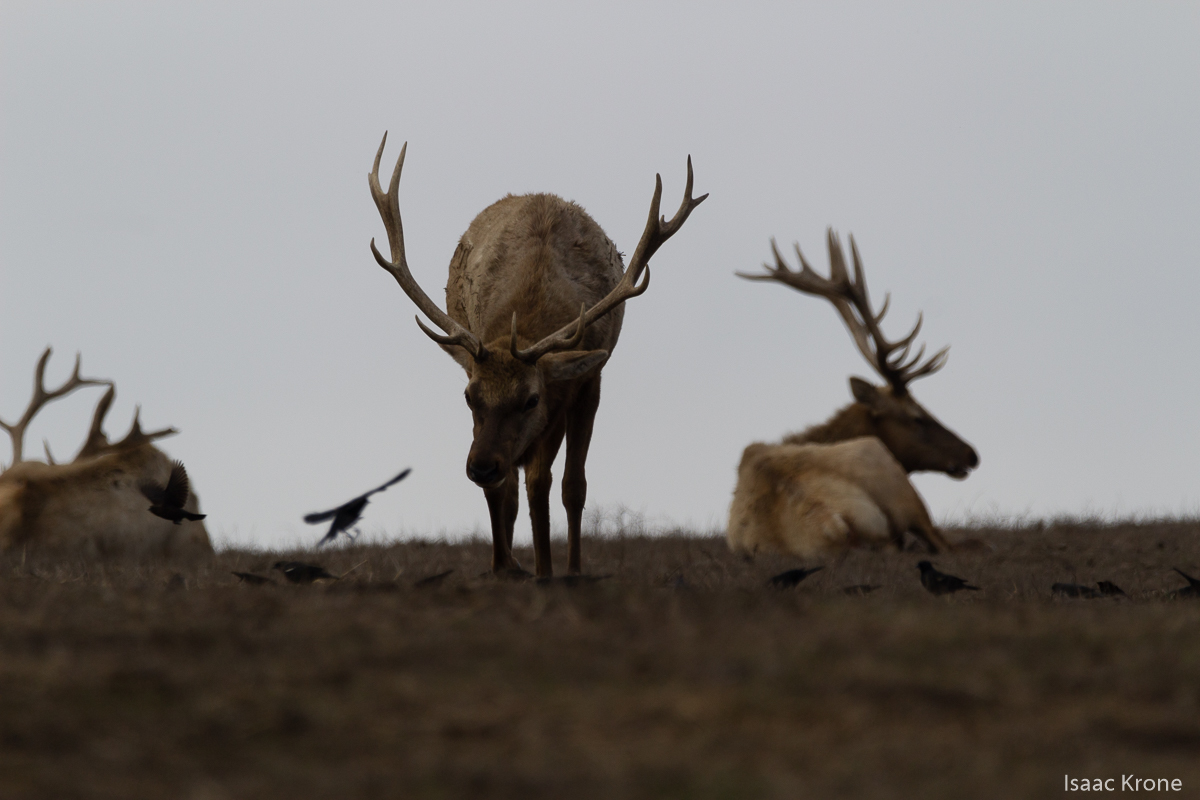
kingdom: Animalia
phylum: Chordata
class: Mammalia
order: Artiodactyla
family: Cervidae
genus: Cervus
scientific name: Cervus elaphus
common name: Red deer
